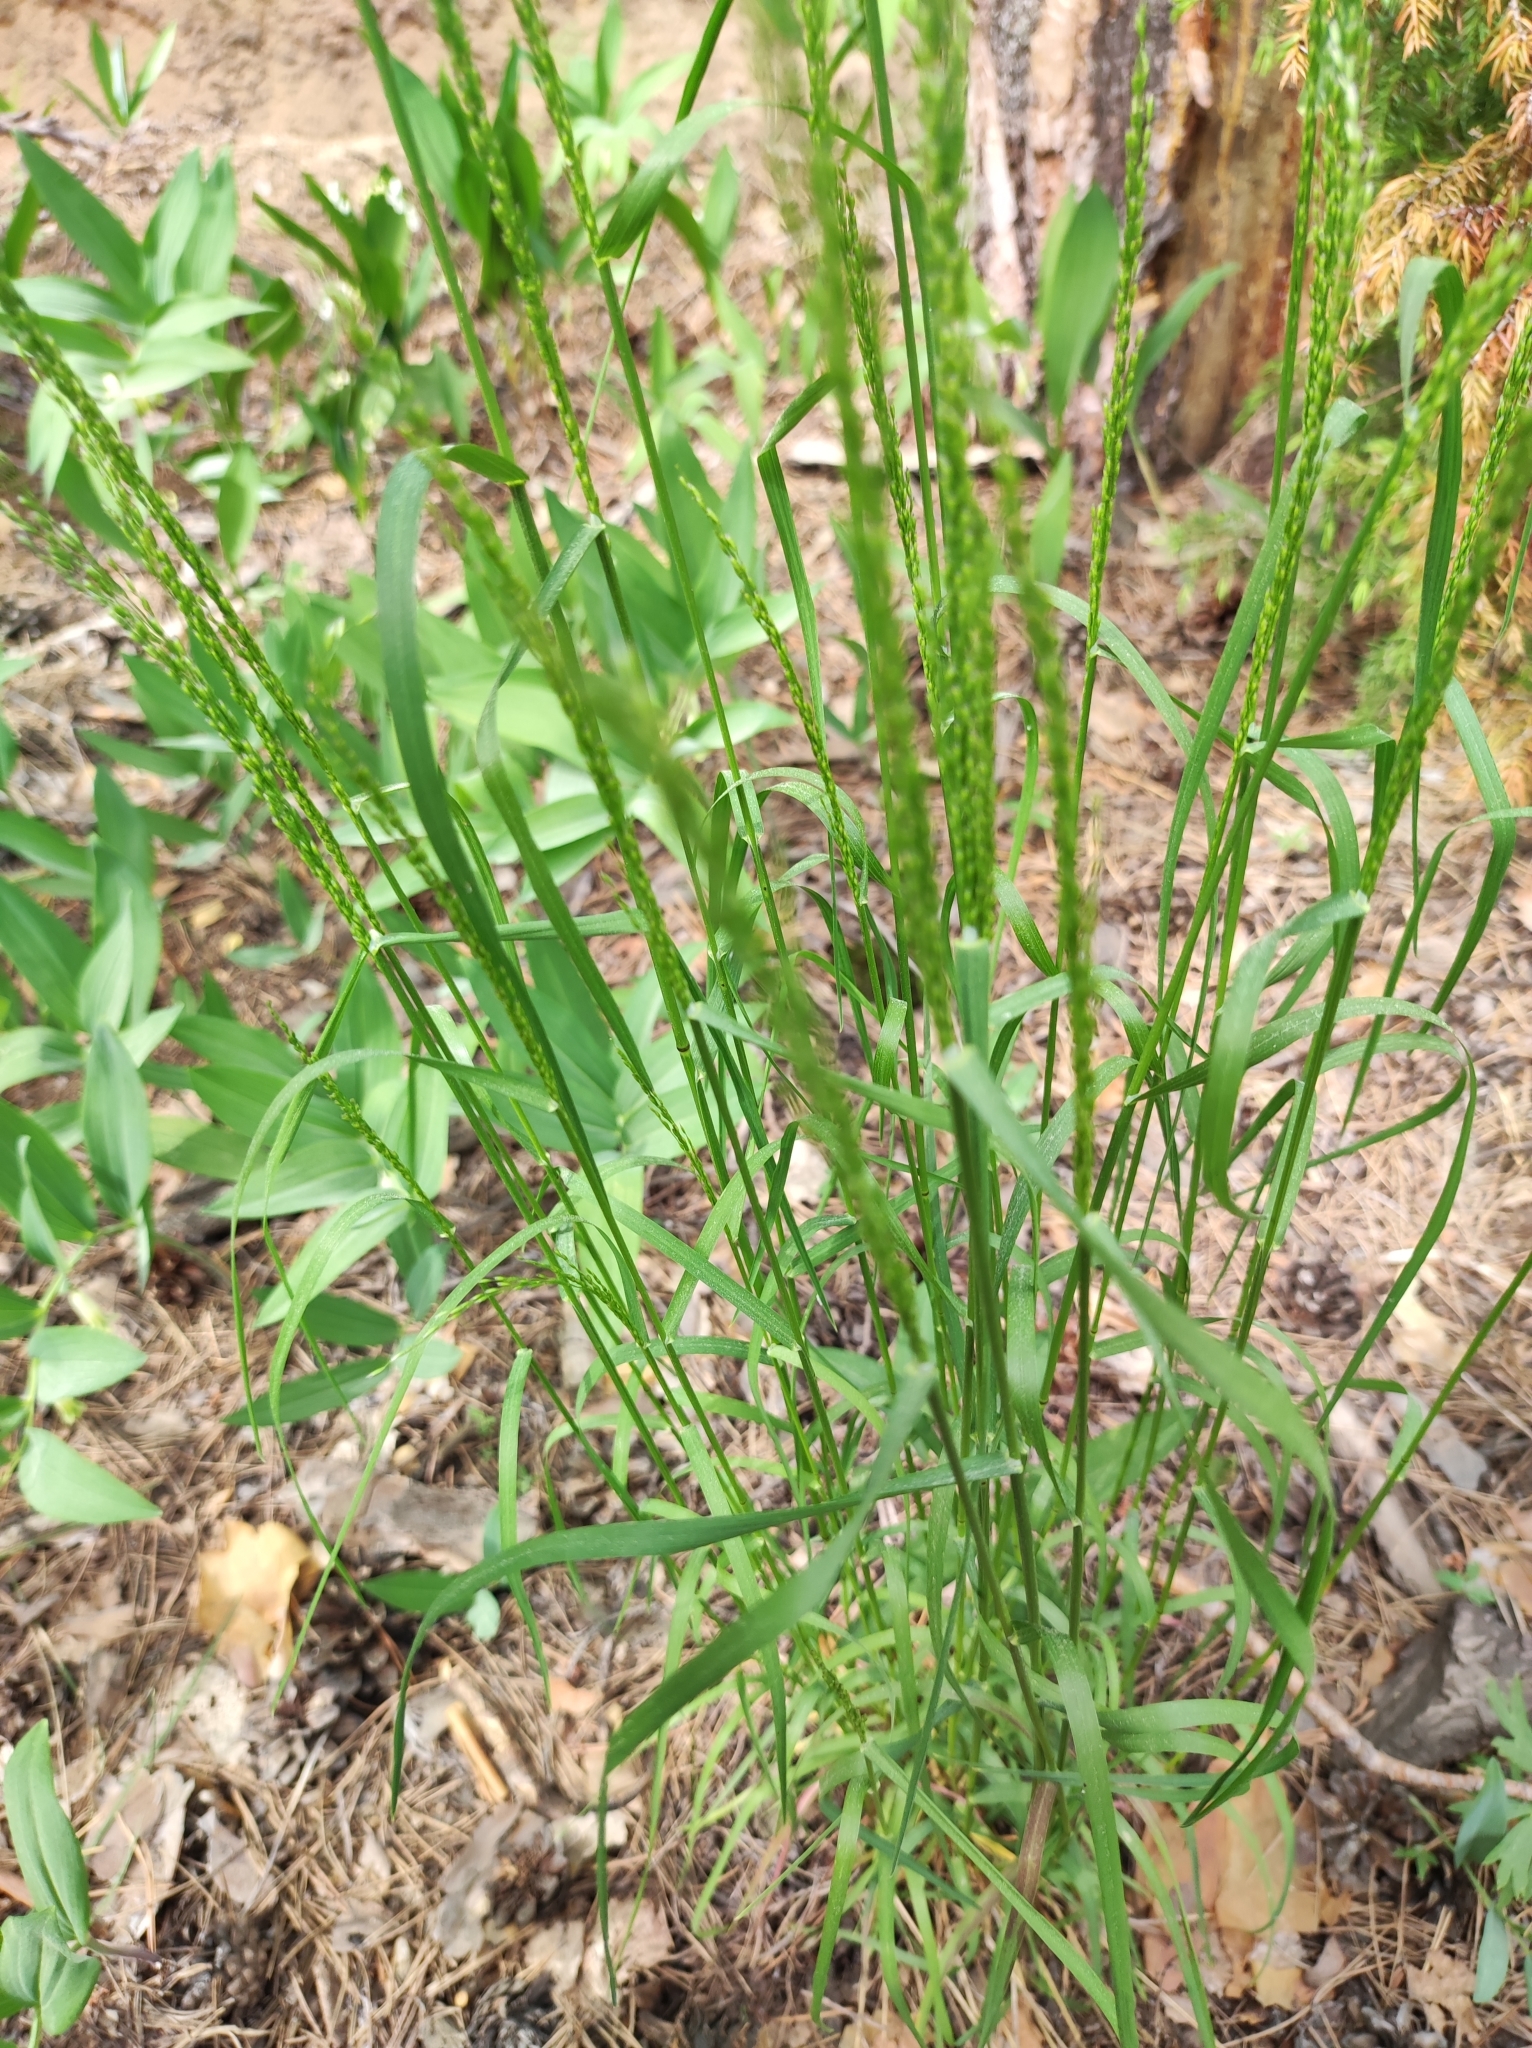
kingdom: Plantae
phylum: Tracheophyta
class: Liliopsida
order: Poales
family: Poaceae
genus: Poa
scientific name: Poa palustris
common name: Swamp meadow-grass
